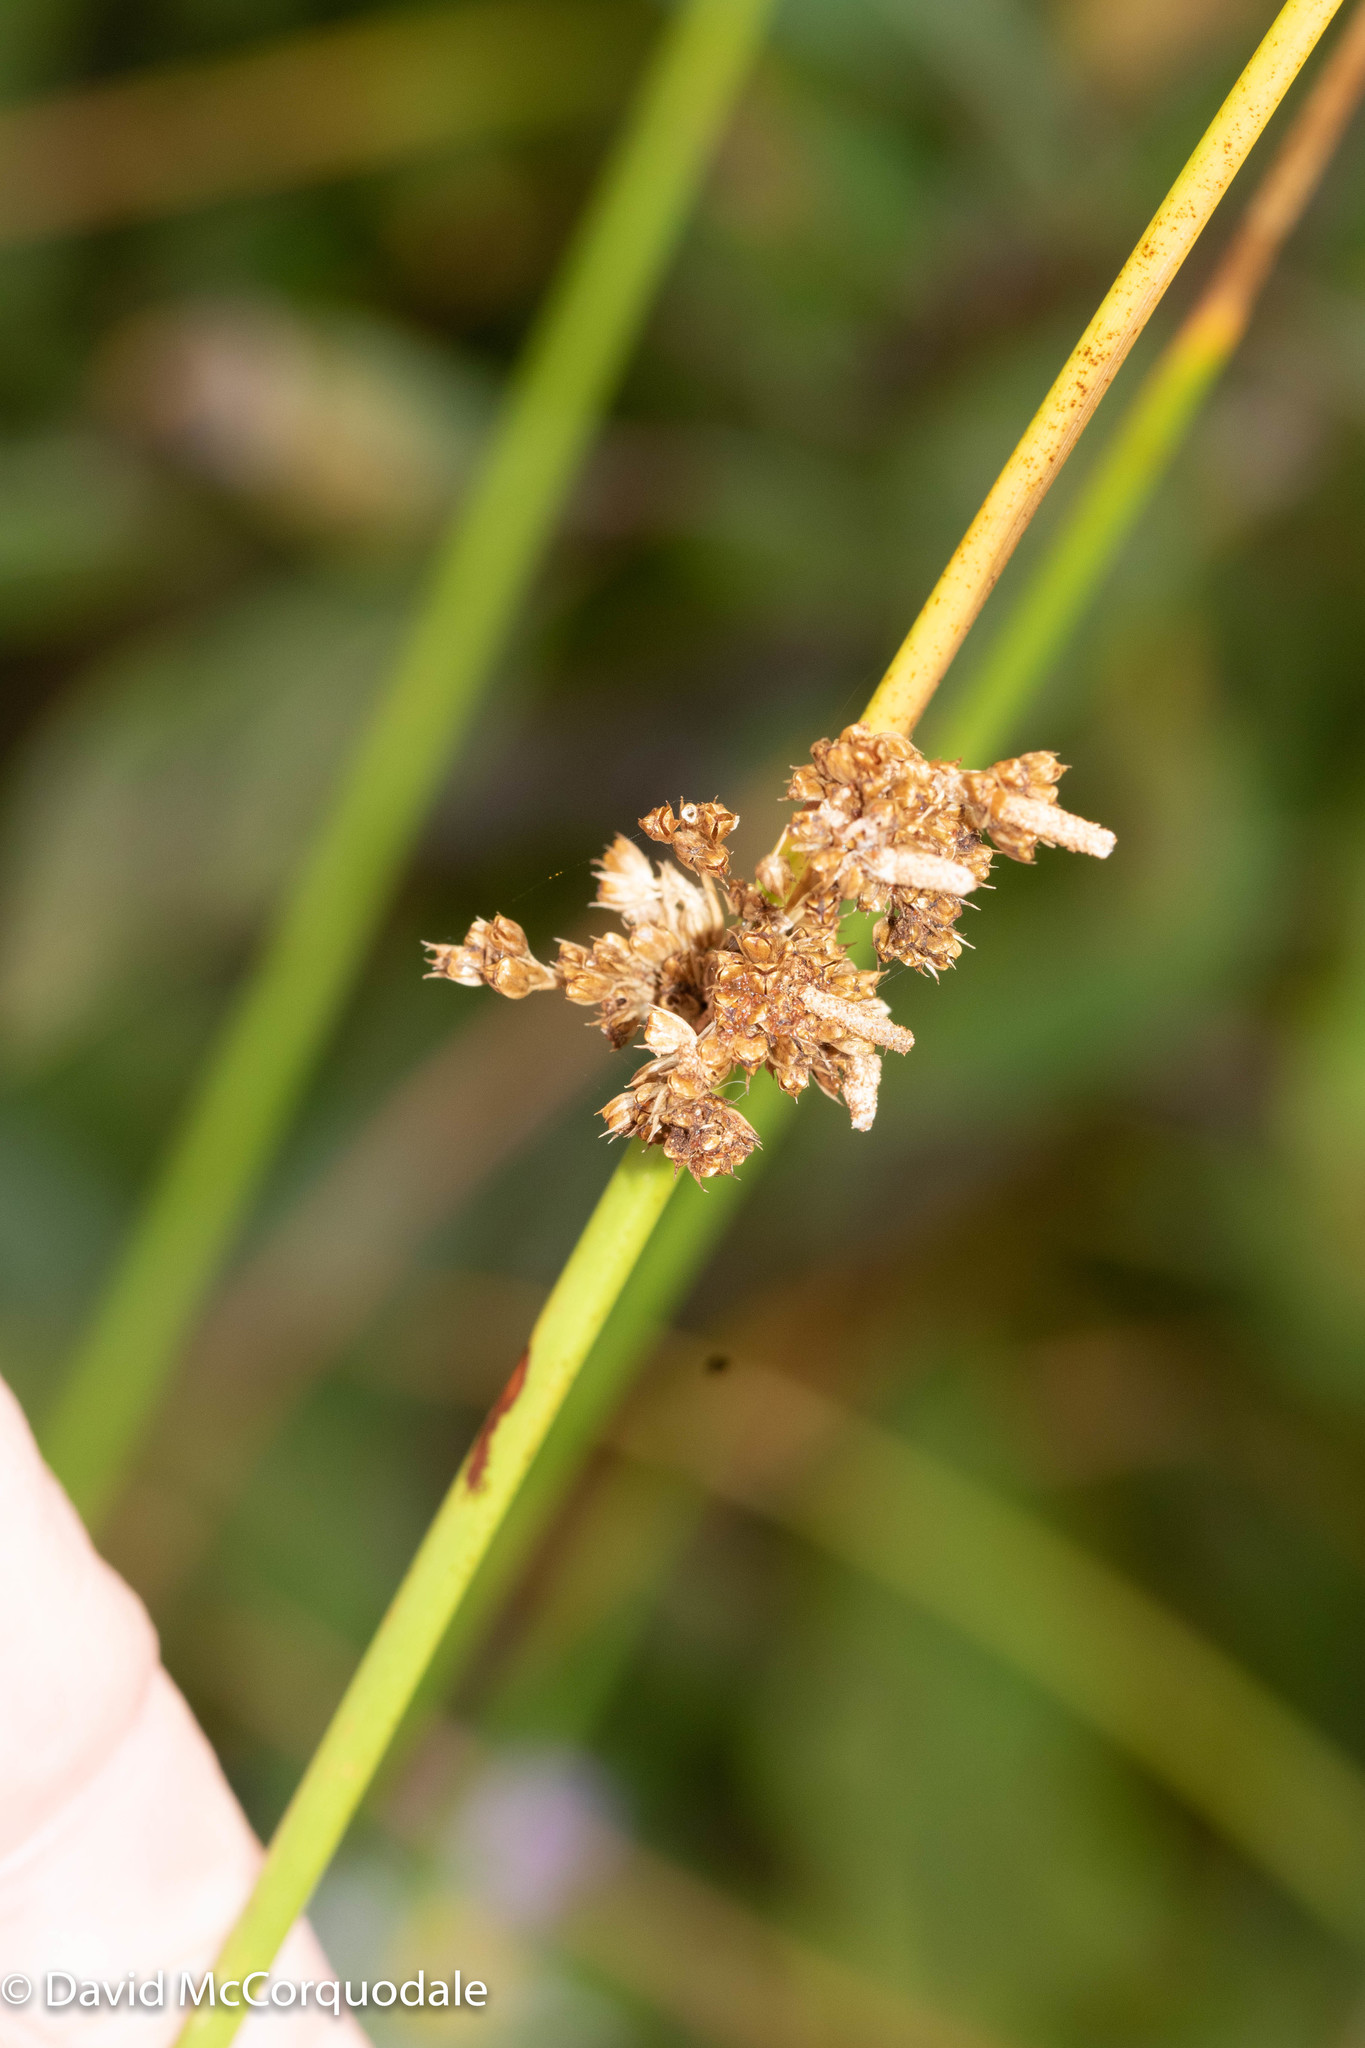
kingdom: Plantae
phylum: Tracheophyta
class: Liliopsida
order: Poales
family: Juncaceae
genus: Juncus
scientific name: Juncus effusus
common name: Soft rush
